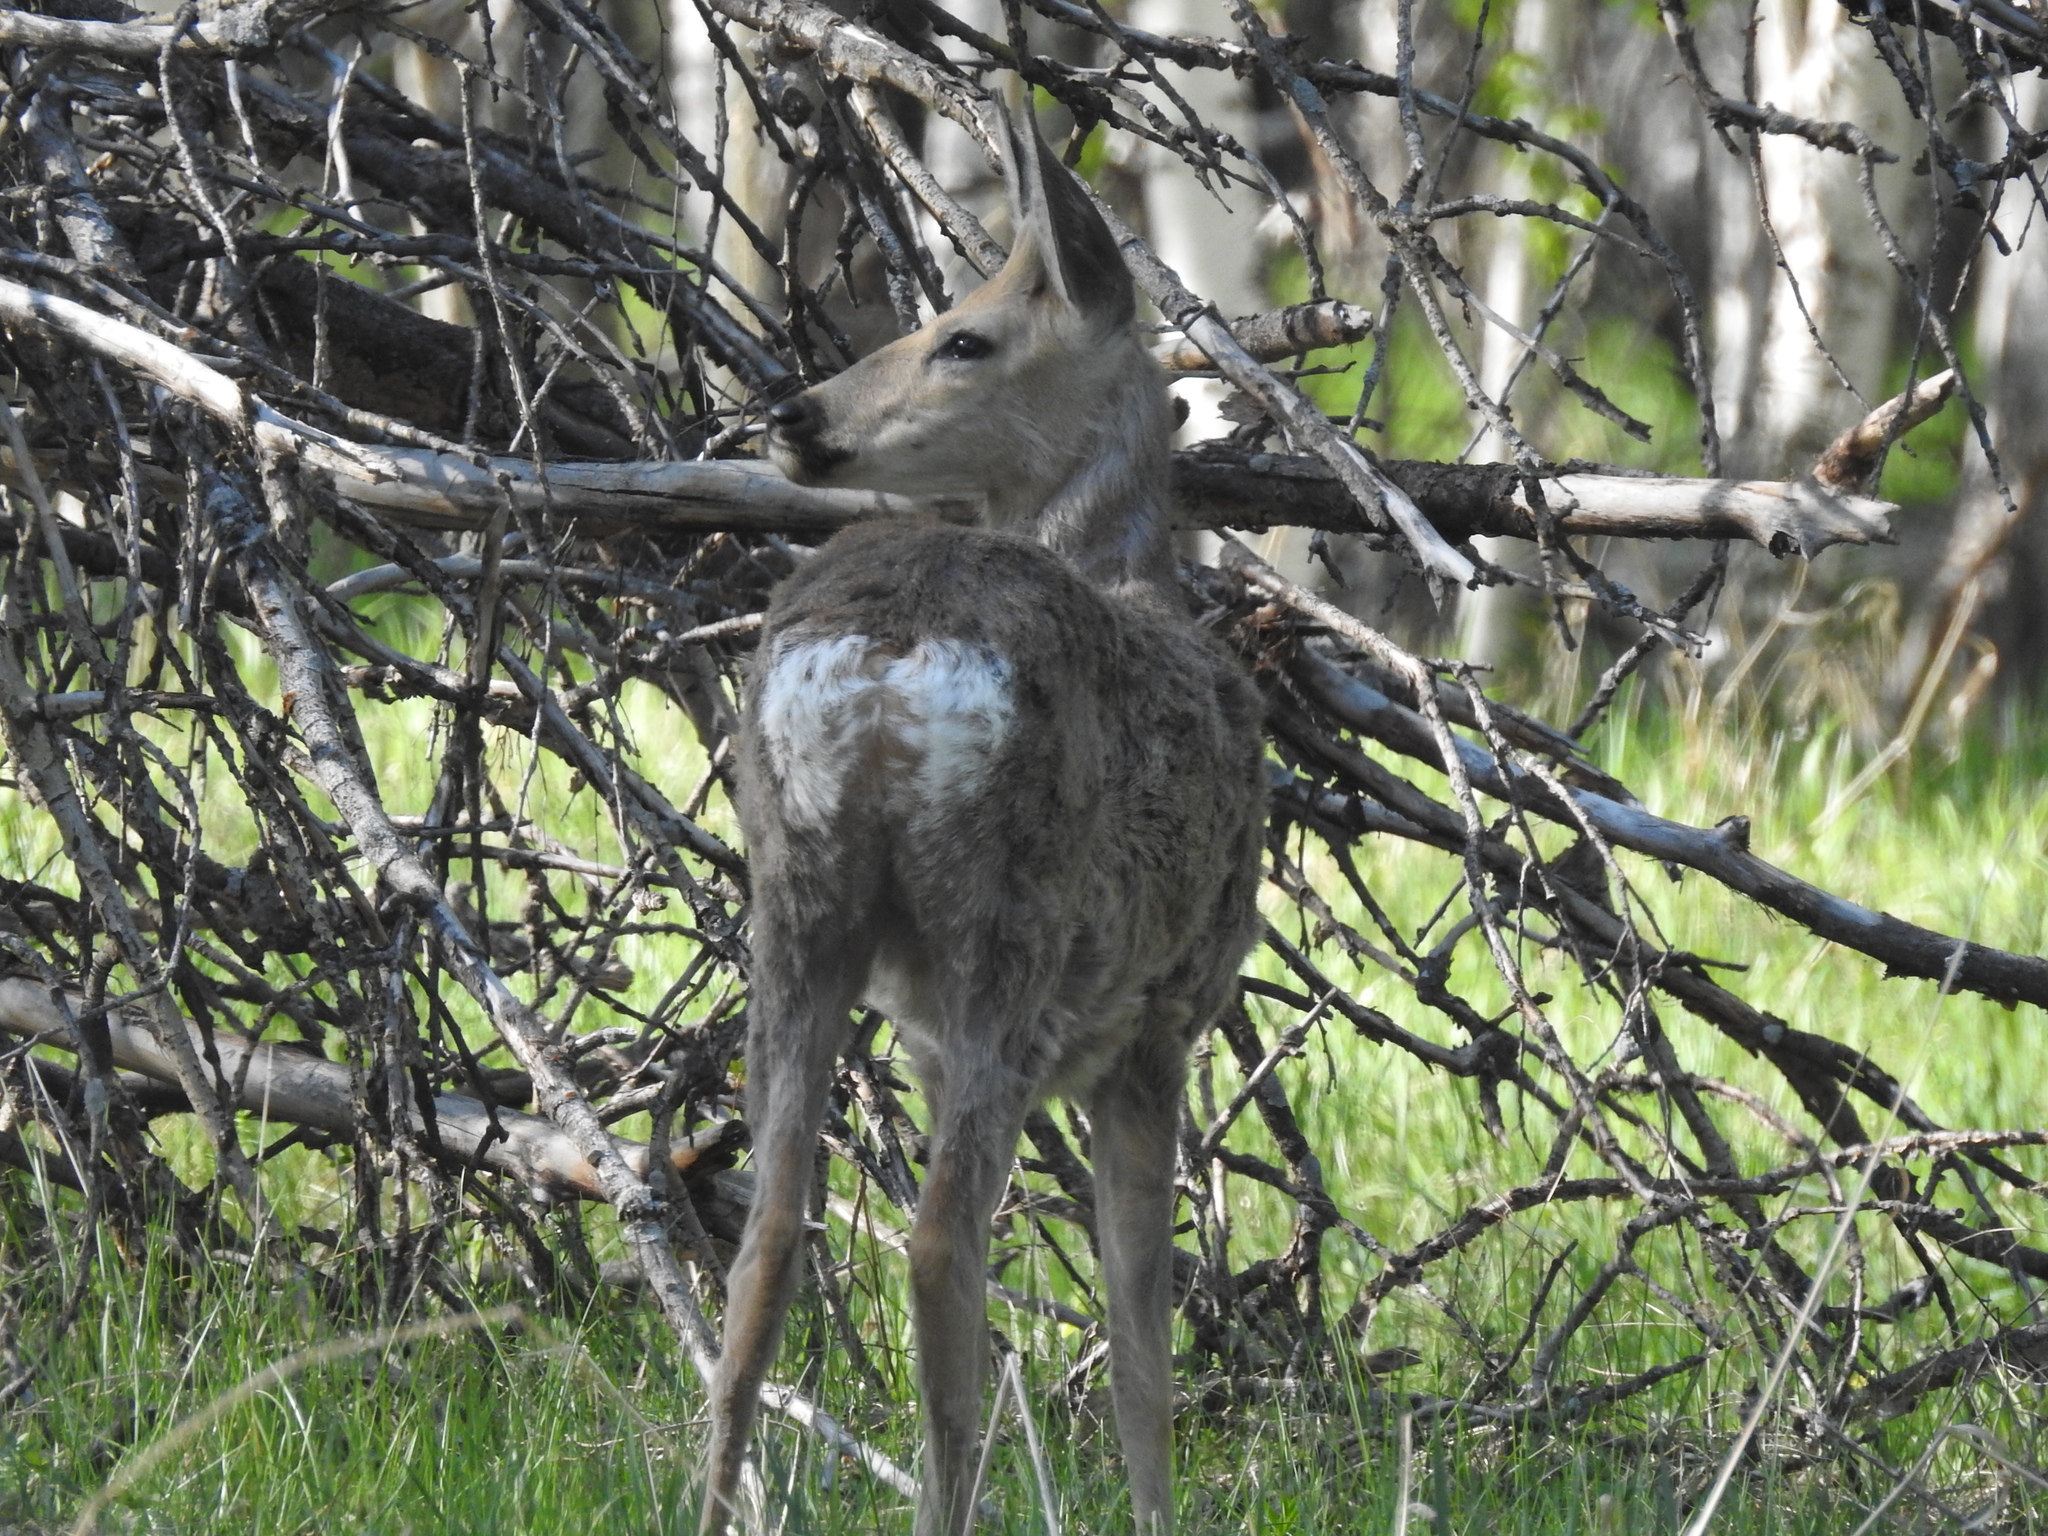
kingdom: Animalia
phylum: Chordata
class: Mammalia
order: Artiodactyla
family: Cervidae
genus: Capreolus
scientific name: Capreolus pygargus
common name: Siberian roe
